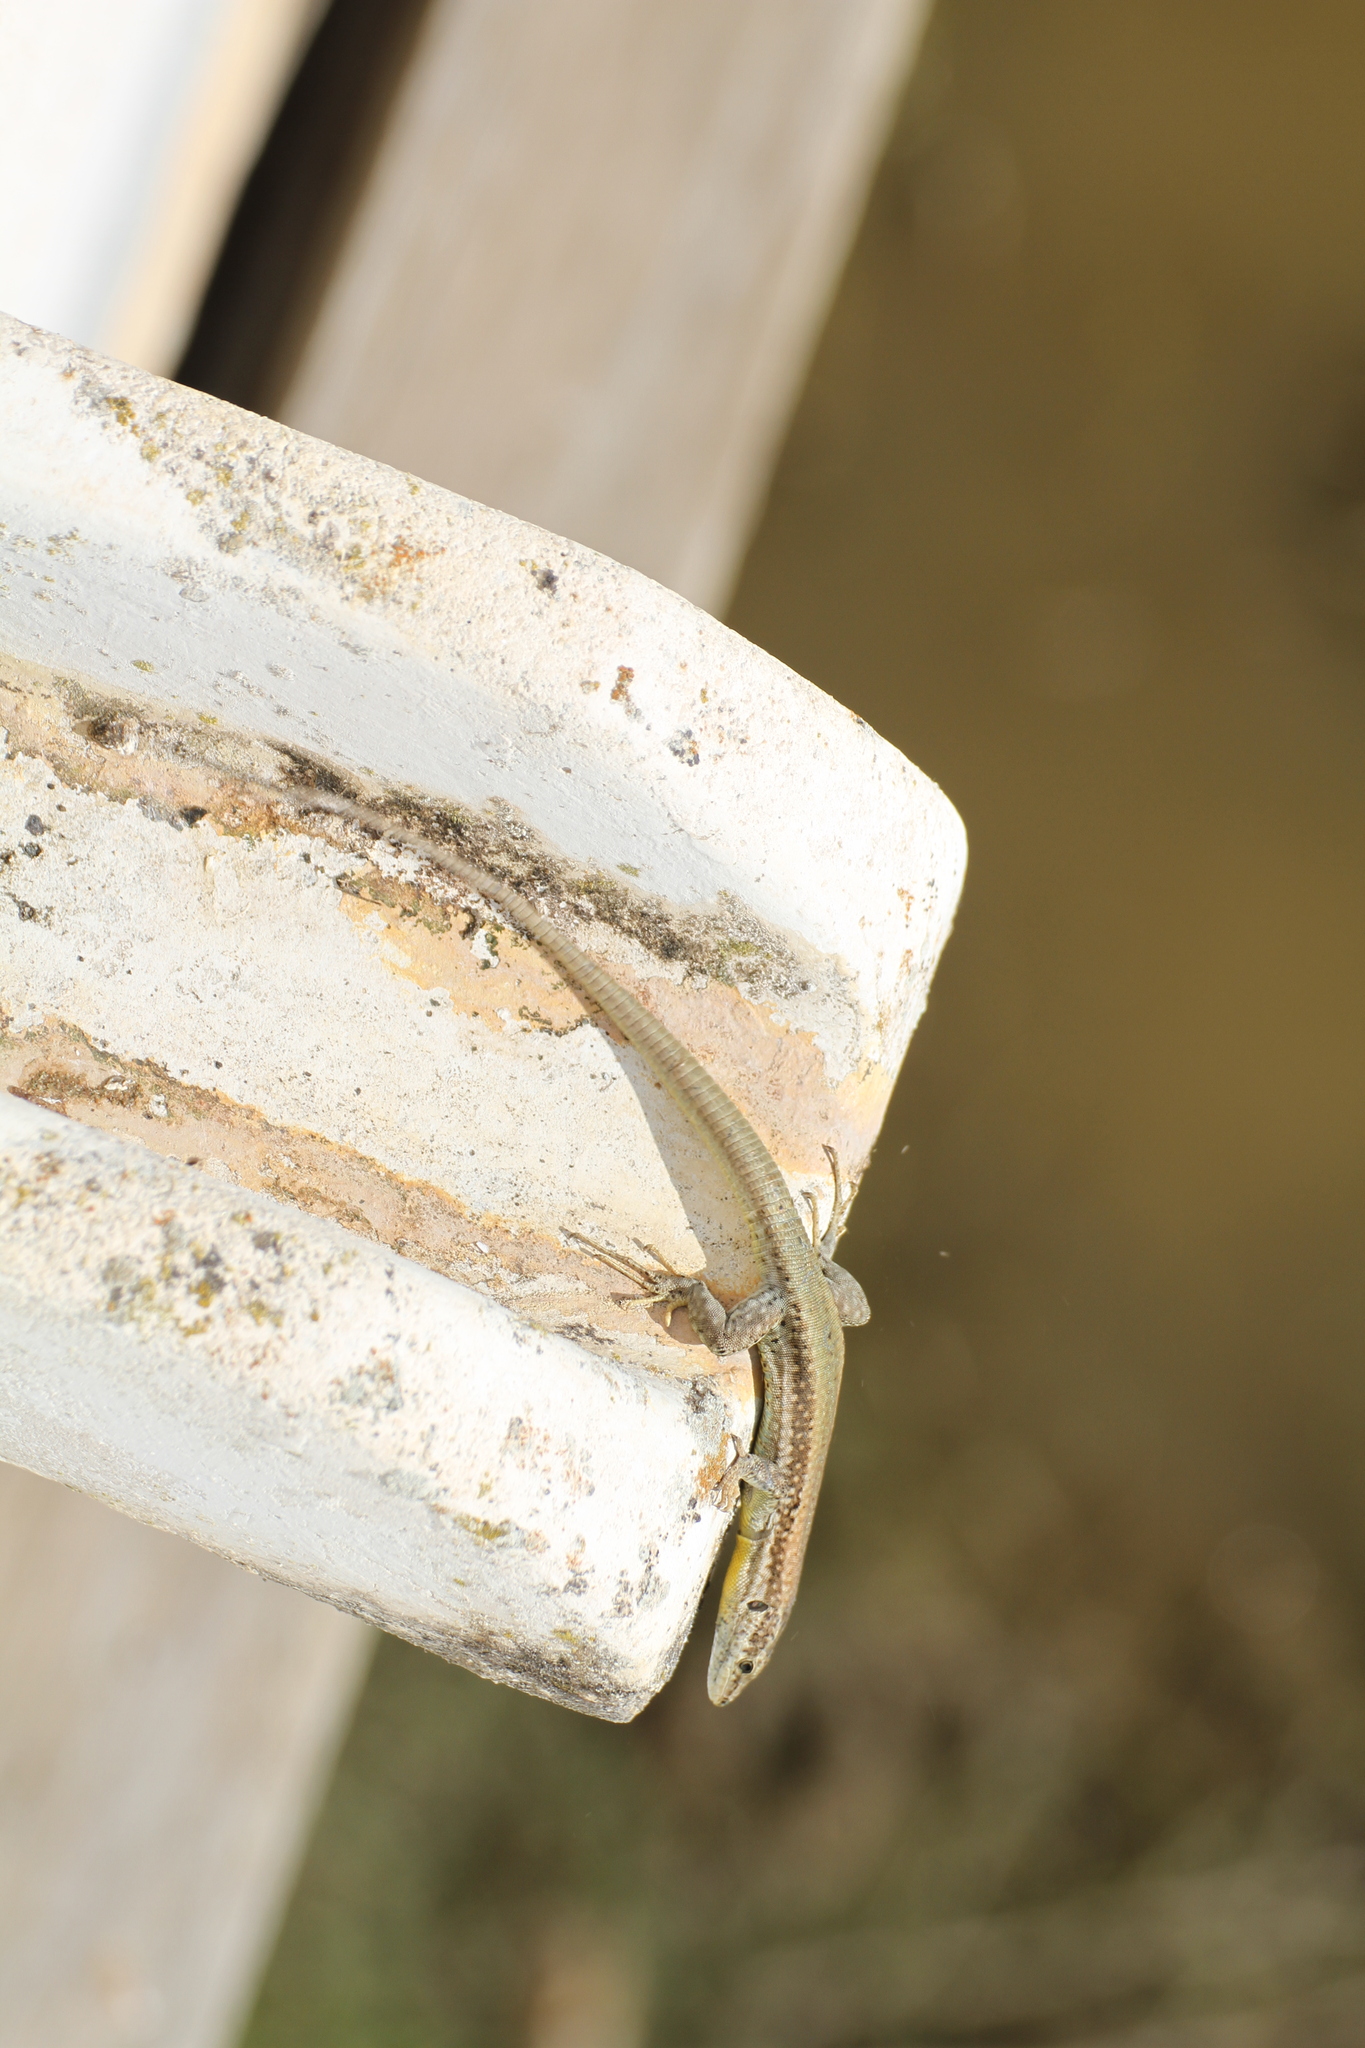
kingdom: Animalia
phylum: Chordata
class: Squamata
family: Lacertidae
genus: Podarcis
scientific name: Podarcis vaucheri
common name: Vaucher's wall lizard
